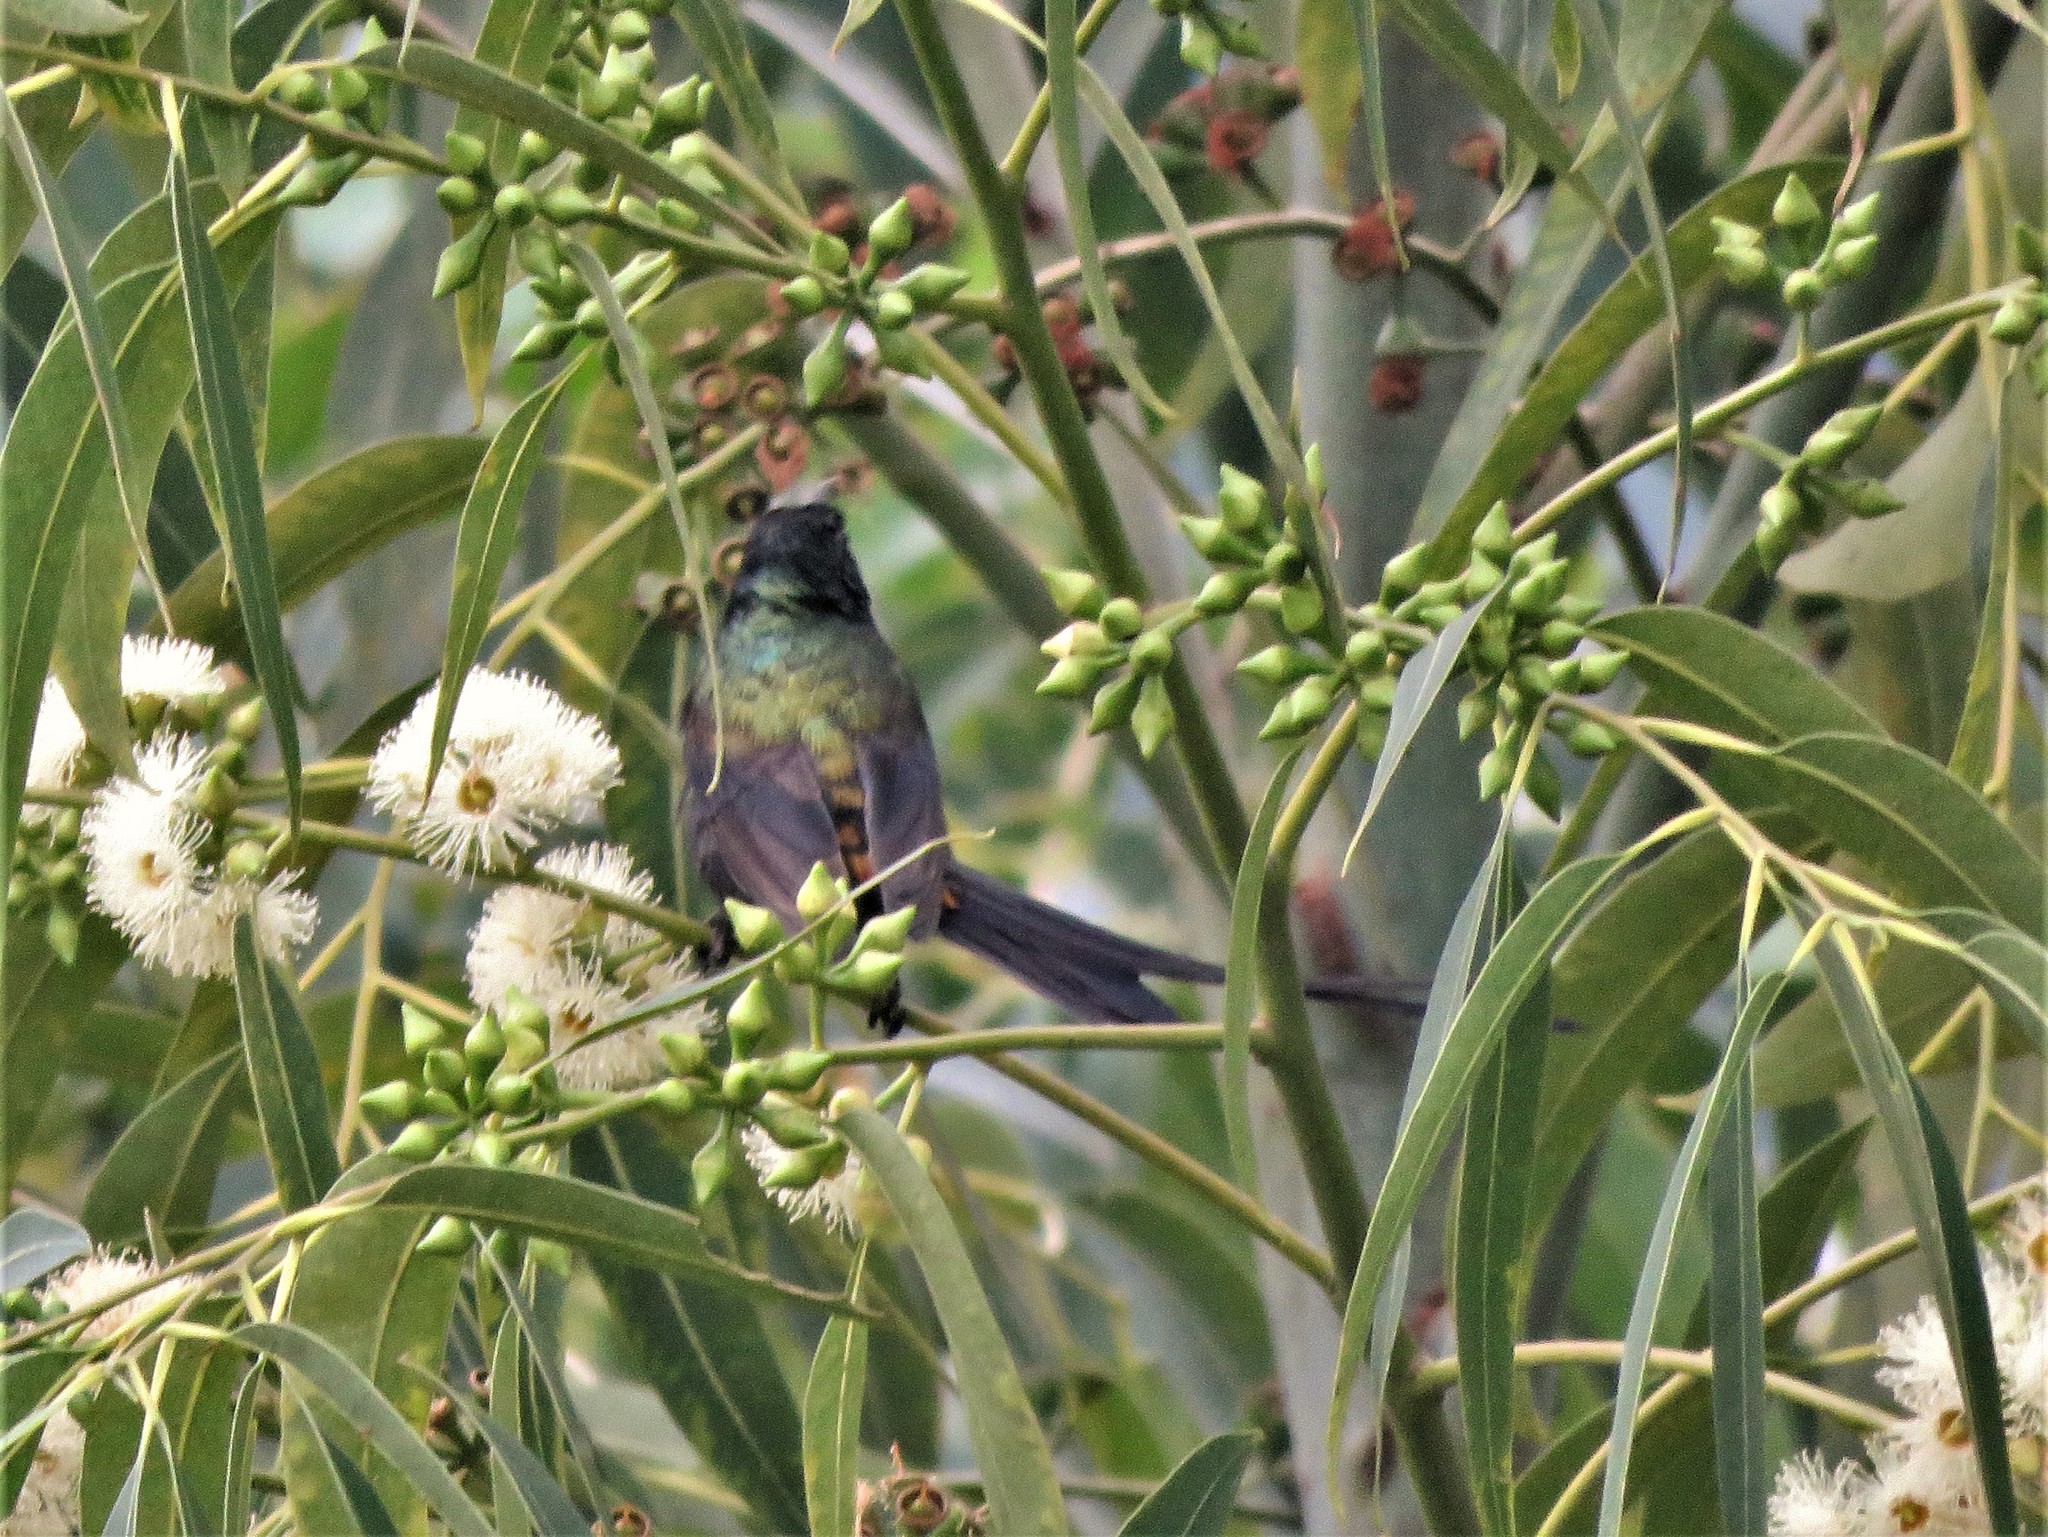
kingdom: Animalia
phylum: Chordata
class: Aves
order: Passeriformes
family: Nectariniidae
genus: Nectarinia
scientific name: Nectarinia kilimensis
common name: Bronzy sunbird
